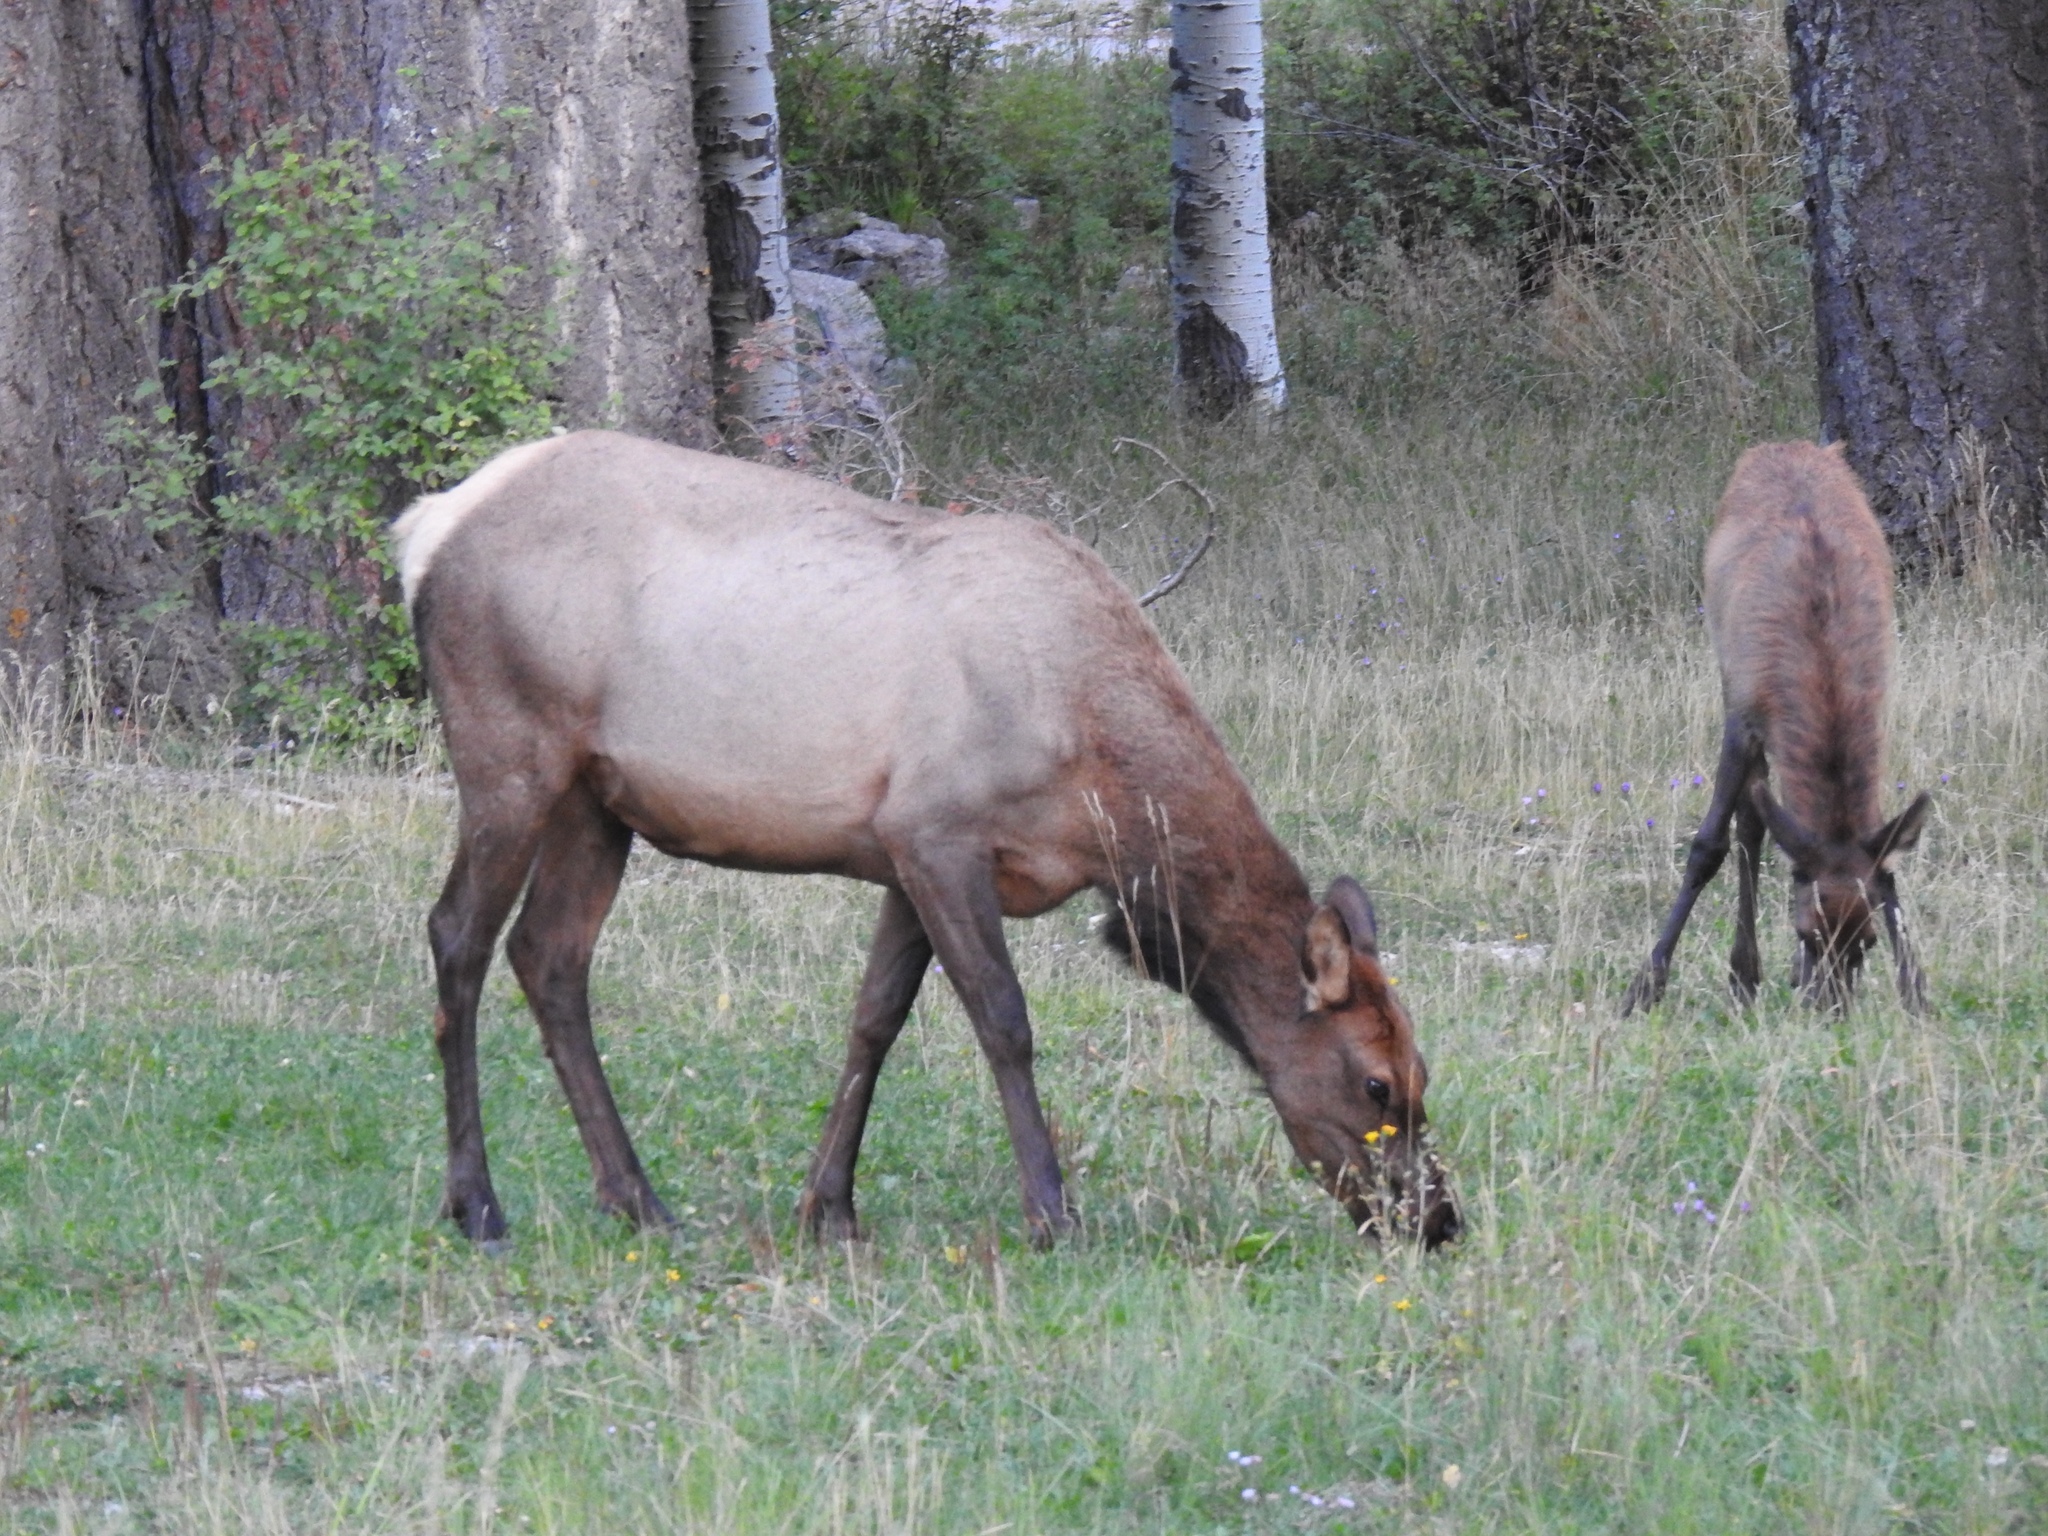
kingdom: Animalia
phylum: Chordata
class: Mammalia
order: Artiodactyla
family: Cervidae
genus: Cervus
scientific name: Cervus elaphus
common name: Red deer
